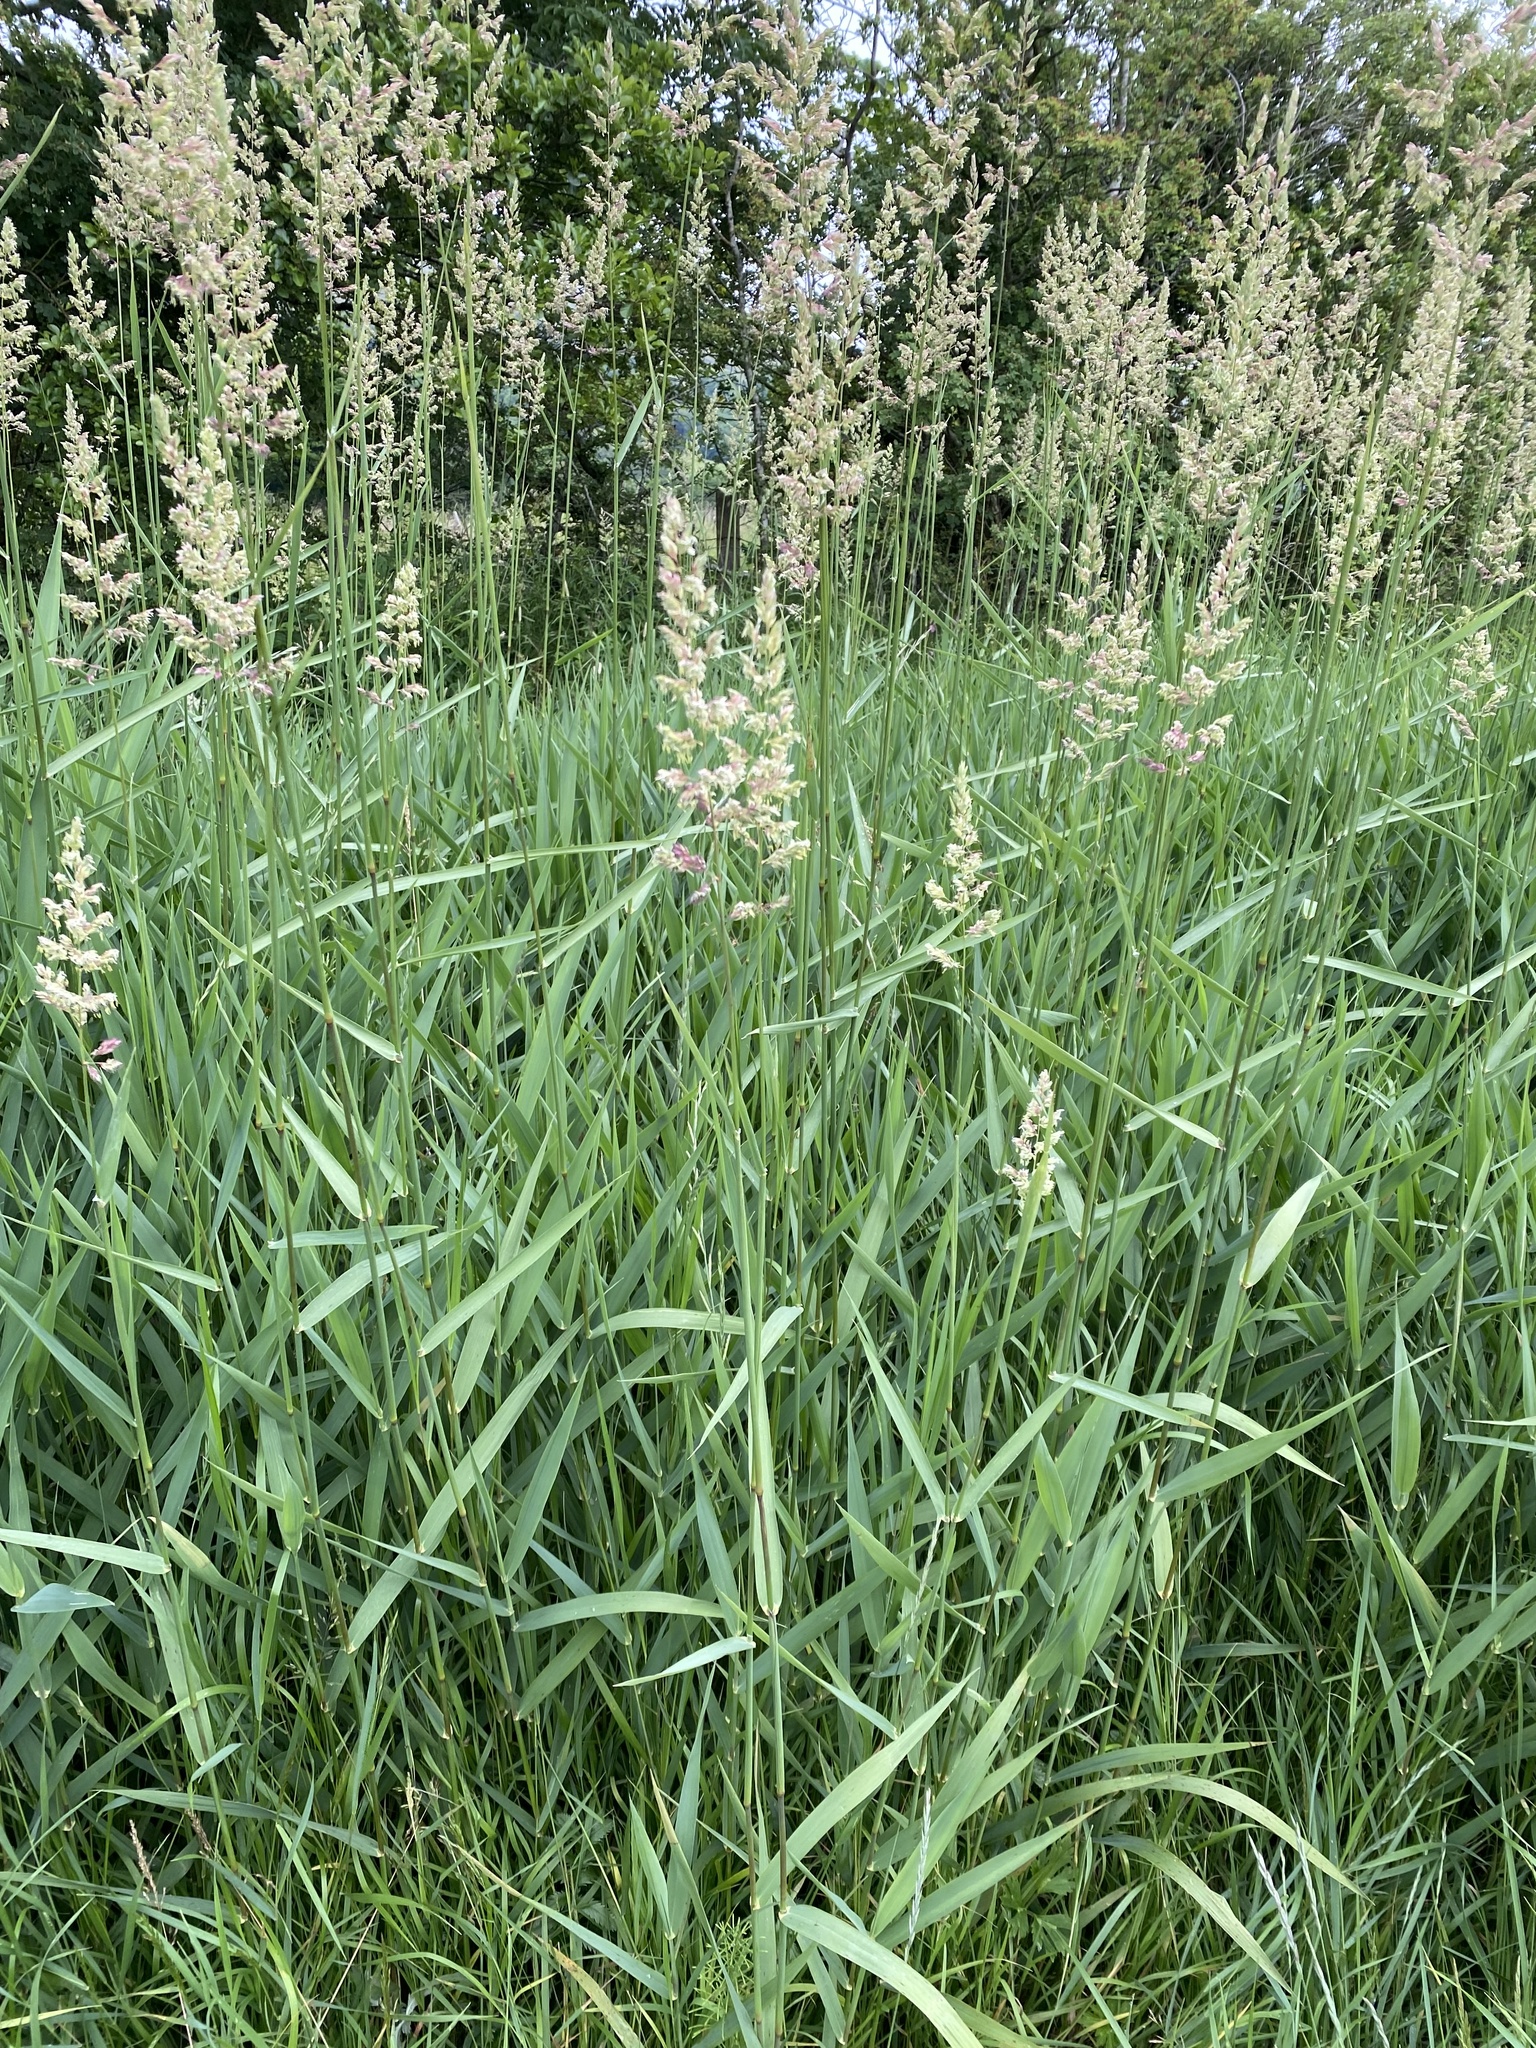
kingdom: Plantae
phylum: Tracheophyta
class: Liliopsida
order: Poales
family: Poaceae
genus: Phalaris
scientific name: Phalaris arundinacea
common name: Reed canary-grass
